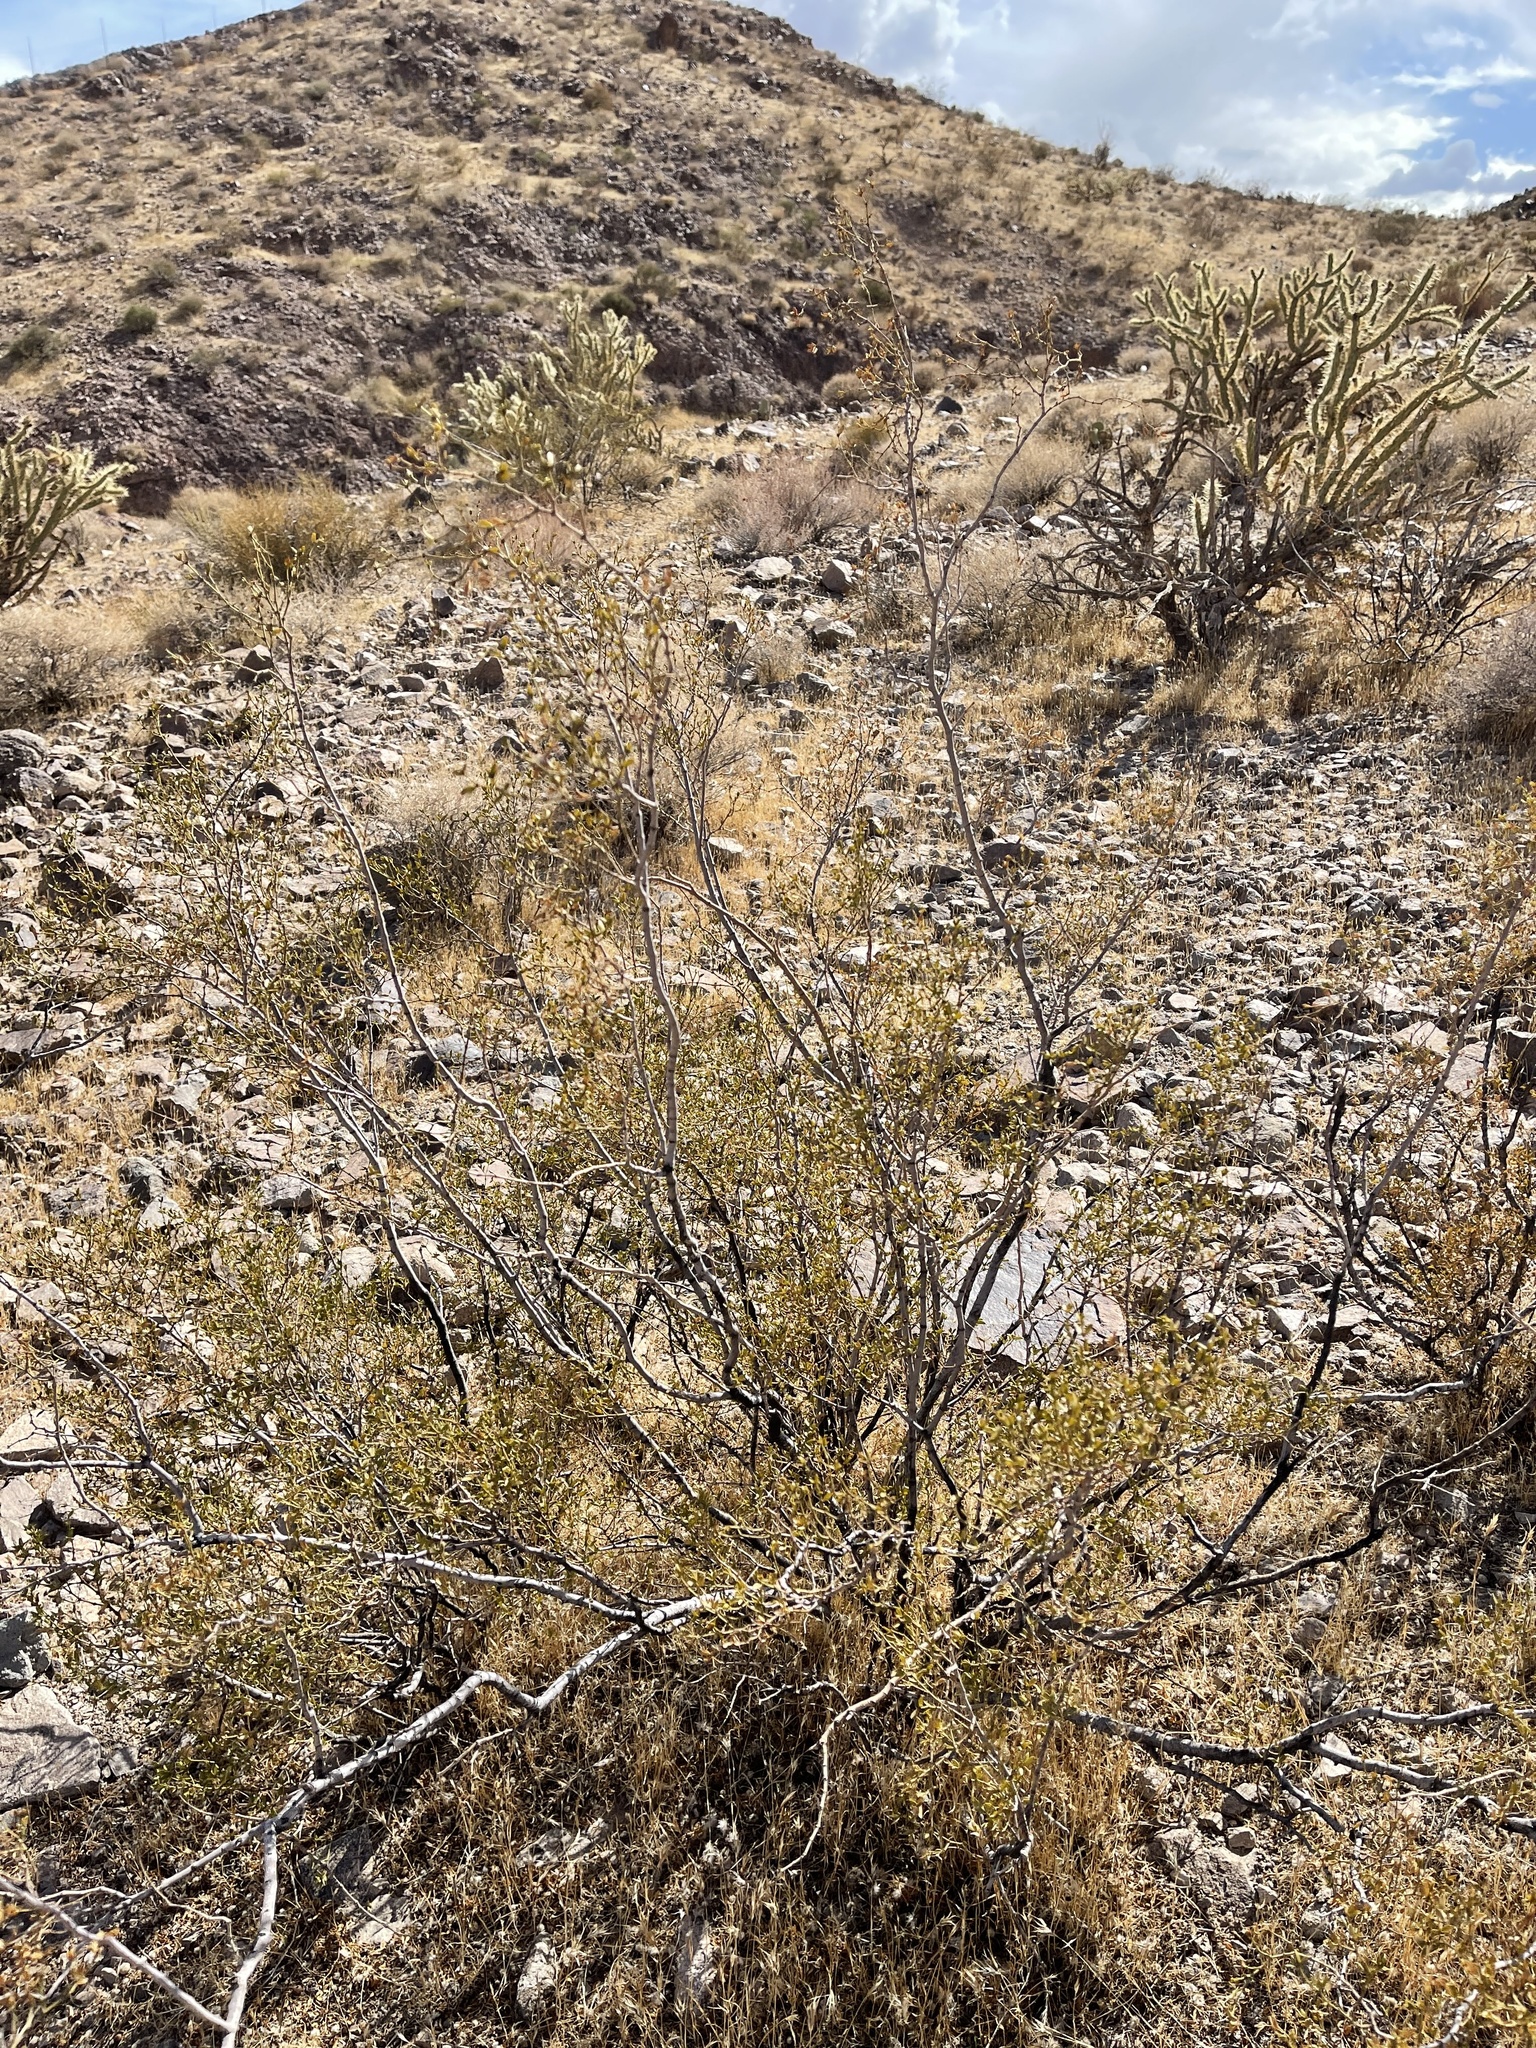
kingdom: Plantae
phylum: Tracheophyta
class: Magnoliopsida
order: Zygophyllales
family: Zygophyllaceae
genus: Larrea
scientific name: Larrea tridentata
